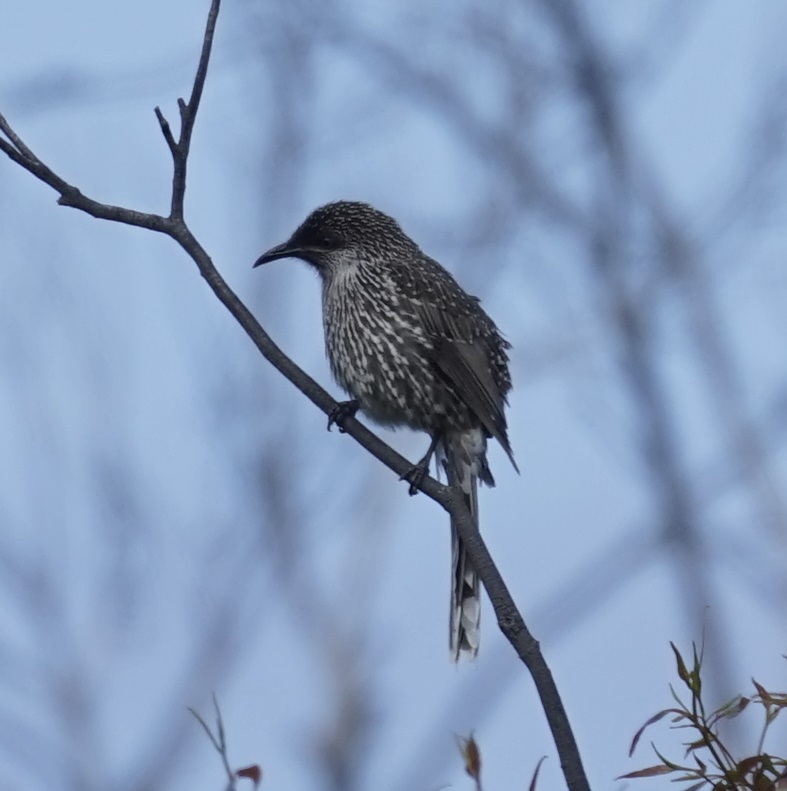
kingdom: Animalia
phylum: Chordata
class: Aves
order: Passeriformes
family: Meliphagidae
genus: Anthochaera
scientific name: Anthochaera chrysoptera
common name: Little wattlebird
